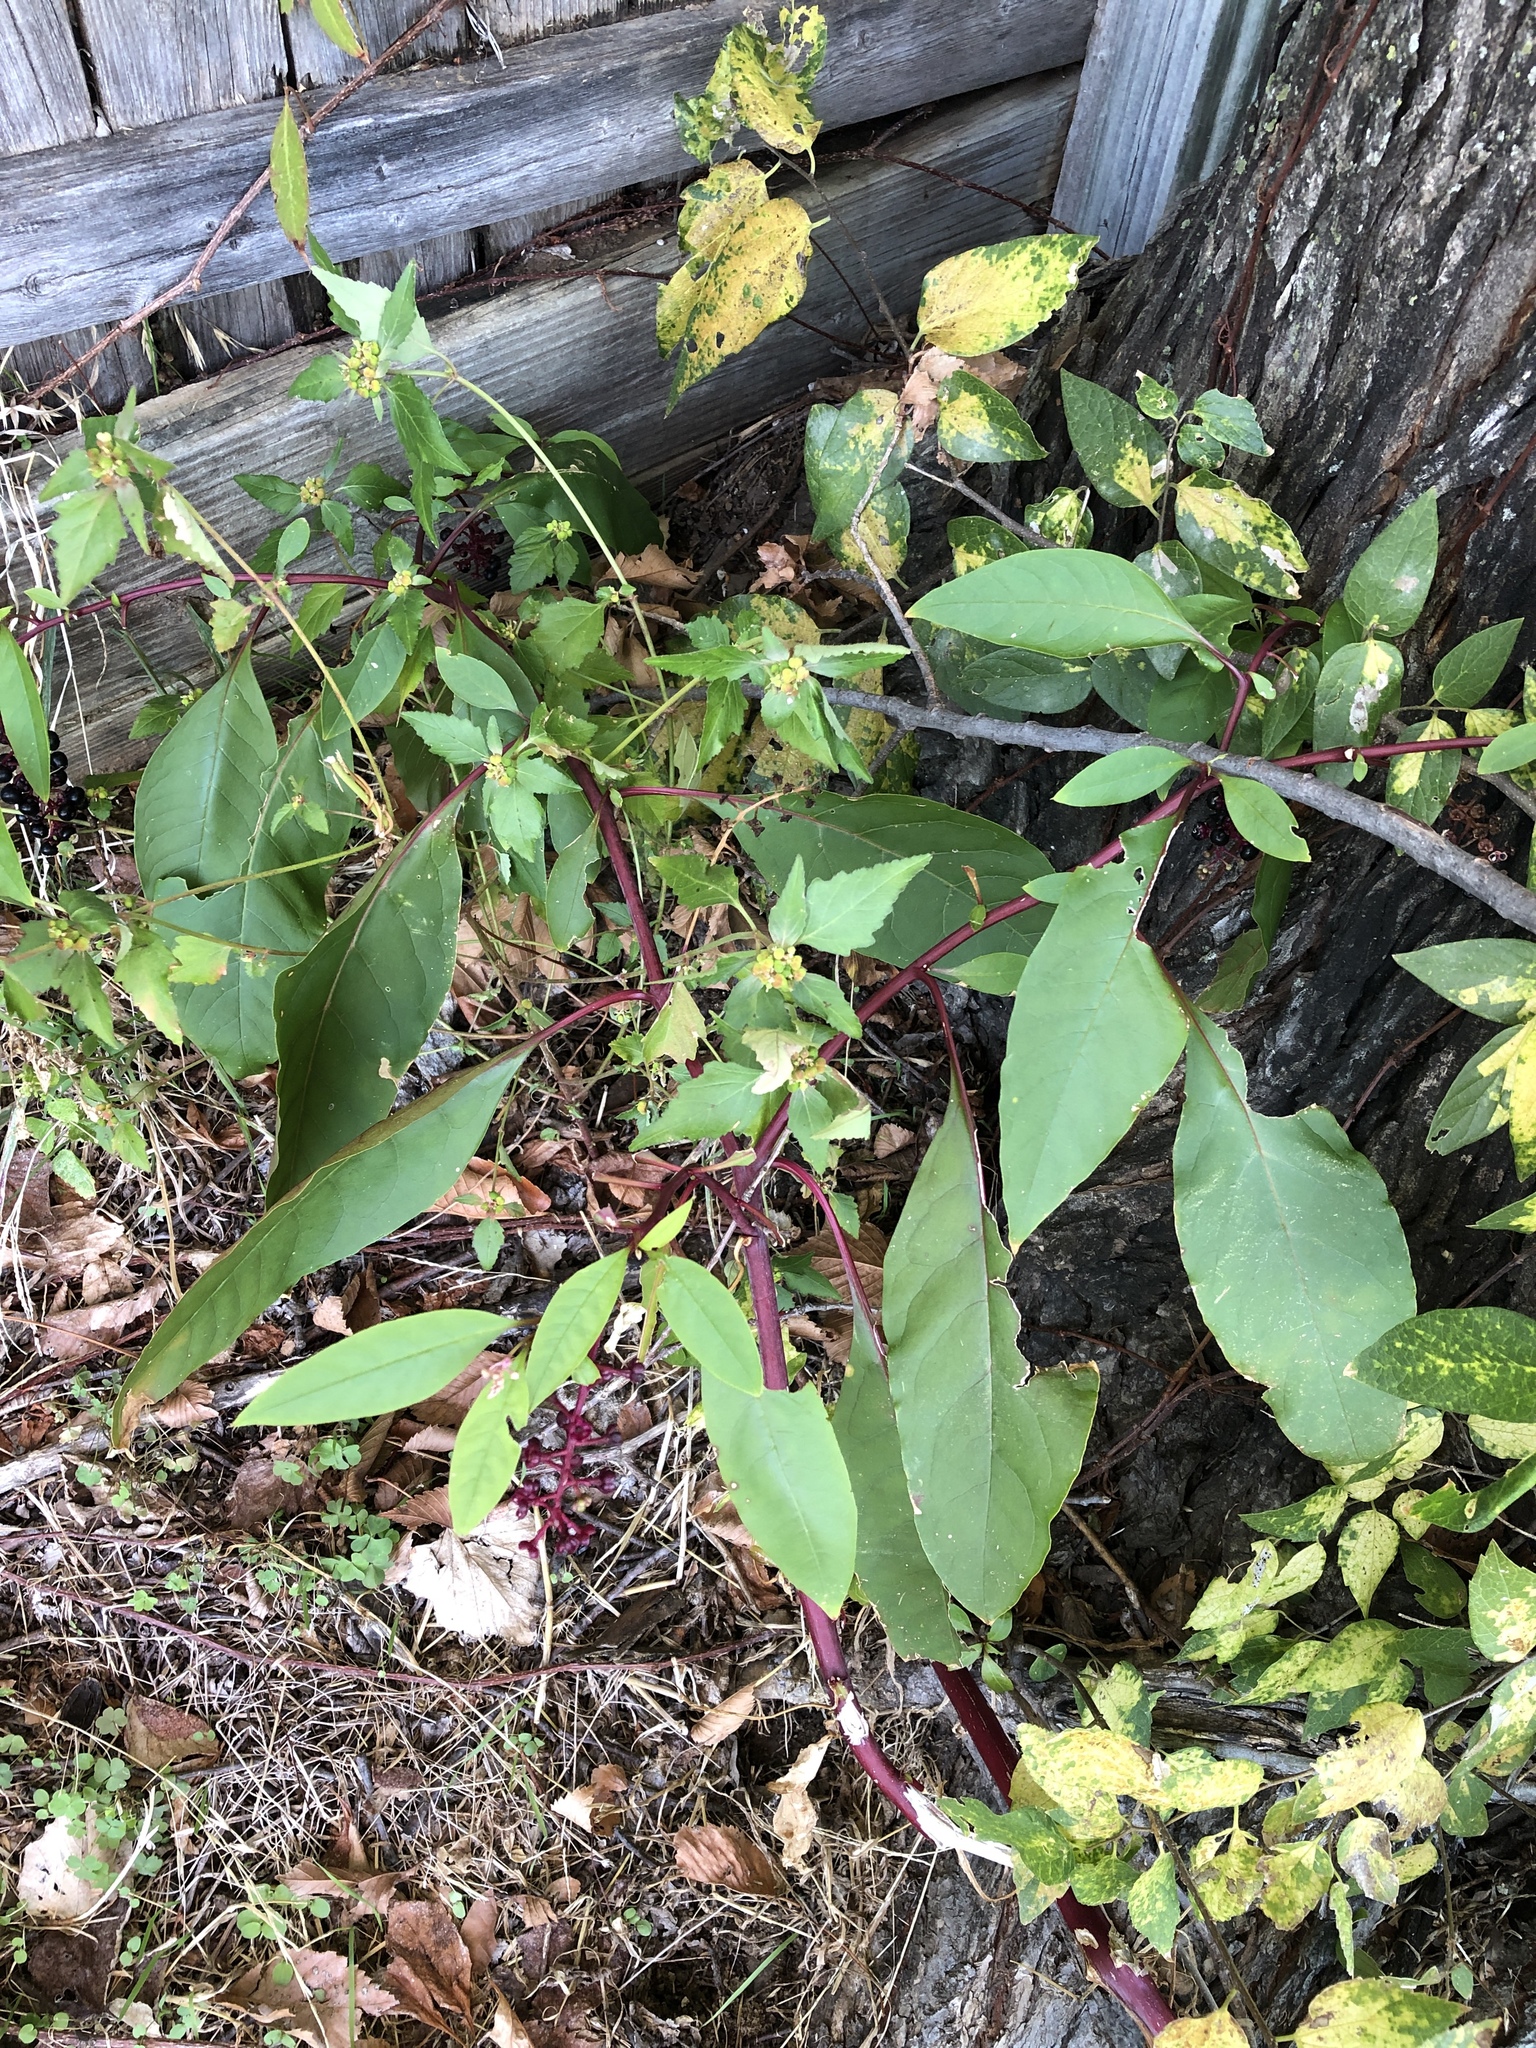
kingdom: Plantae
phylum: Tracheophyta
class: Magnoliopsida
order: Caryophyllales
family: Phytolaccaceae
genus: Phytolacca
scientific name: Phytolacca americana
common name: American pokeweed
